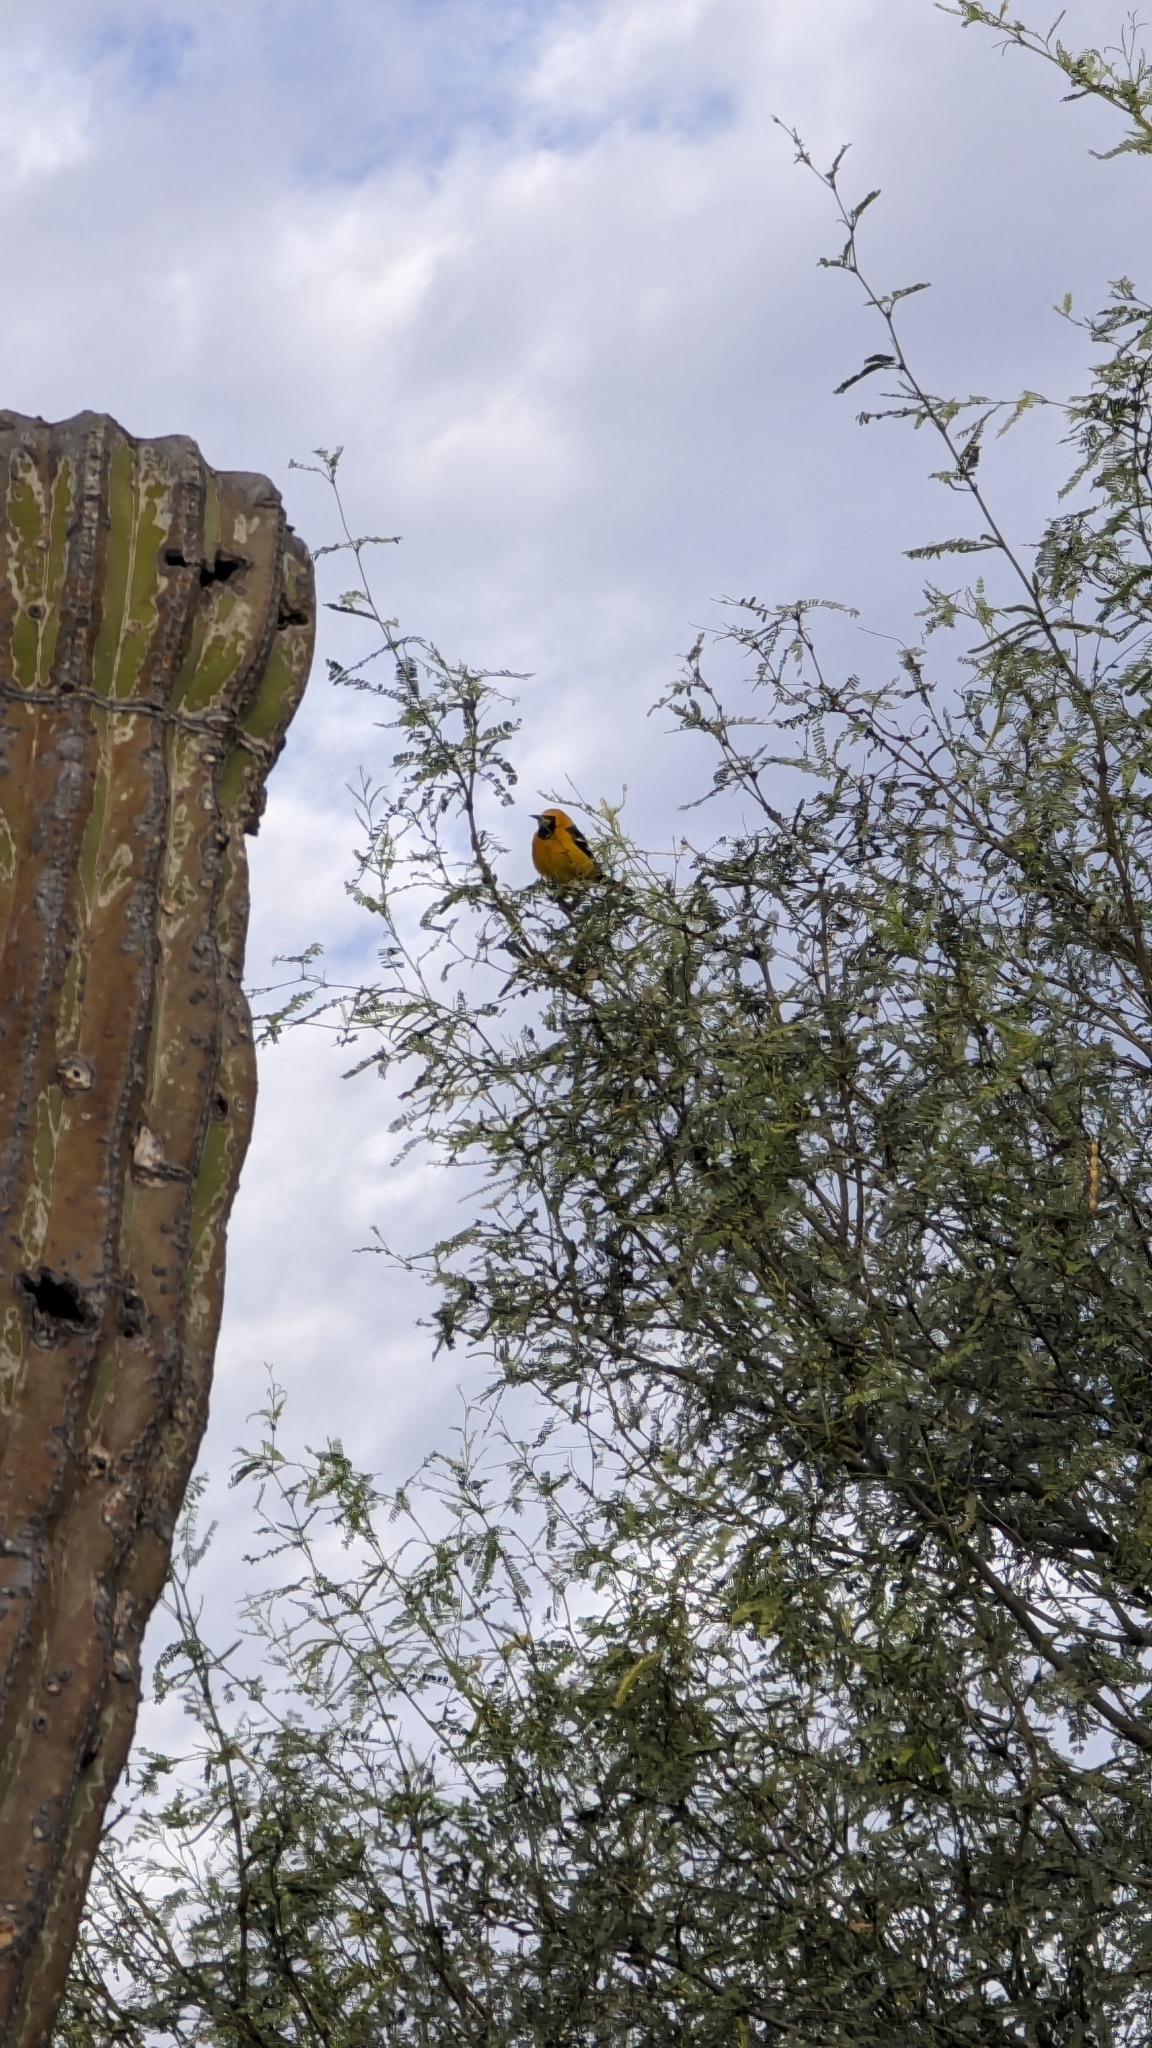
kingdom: Animalia
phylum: Chordata
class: Aves
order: Passeriformes
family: Icteridae
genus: Icterus
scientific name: Icterus cucullatus
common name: Hooded oriole
